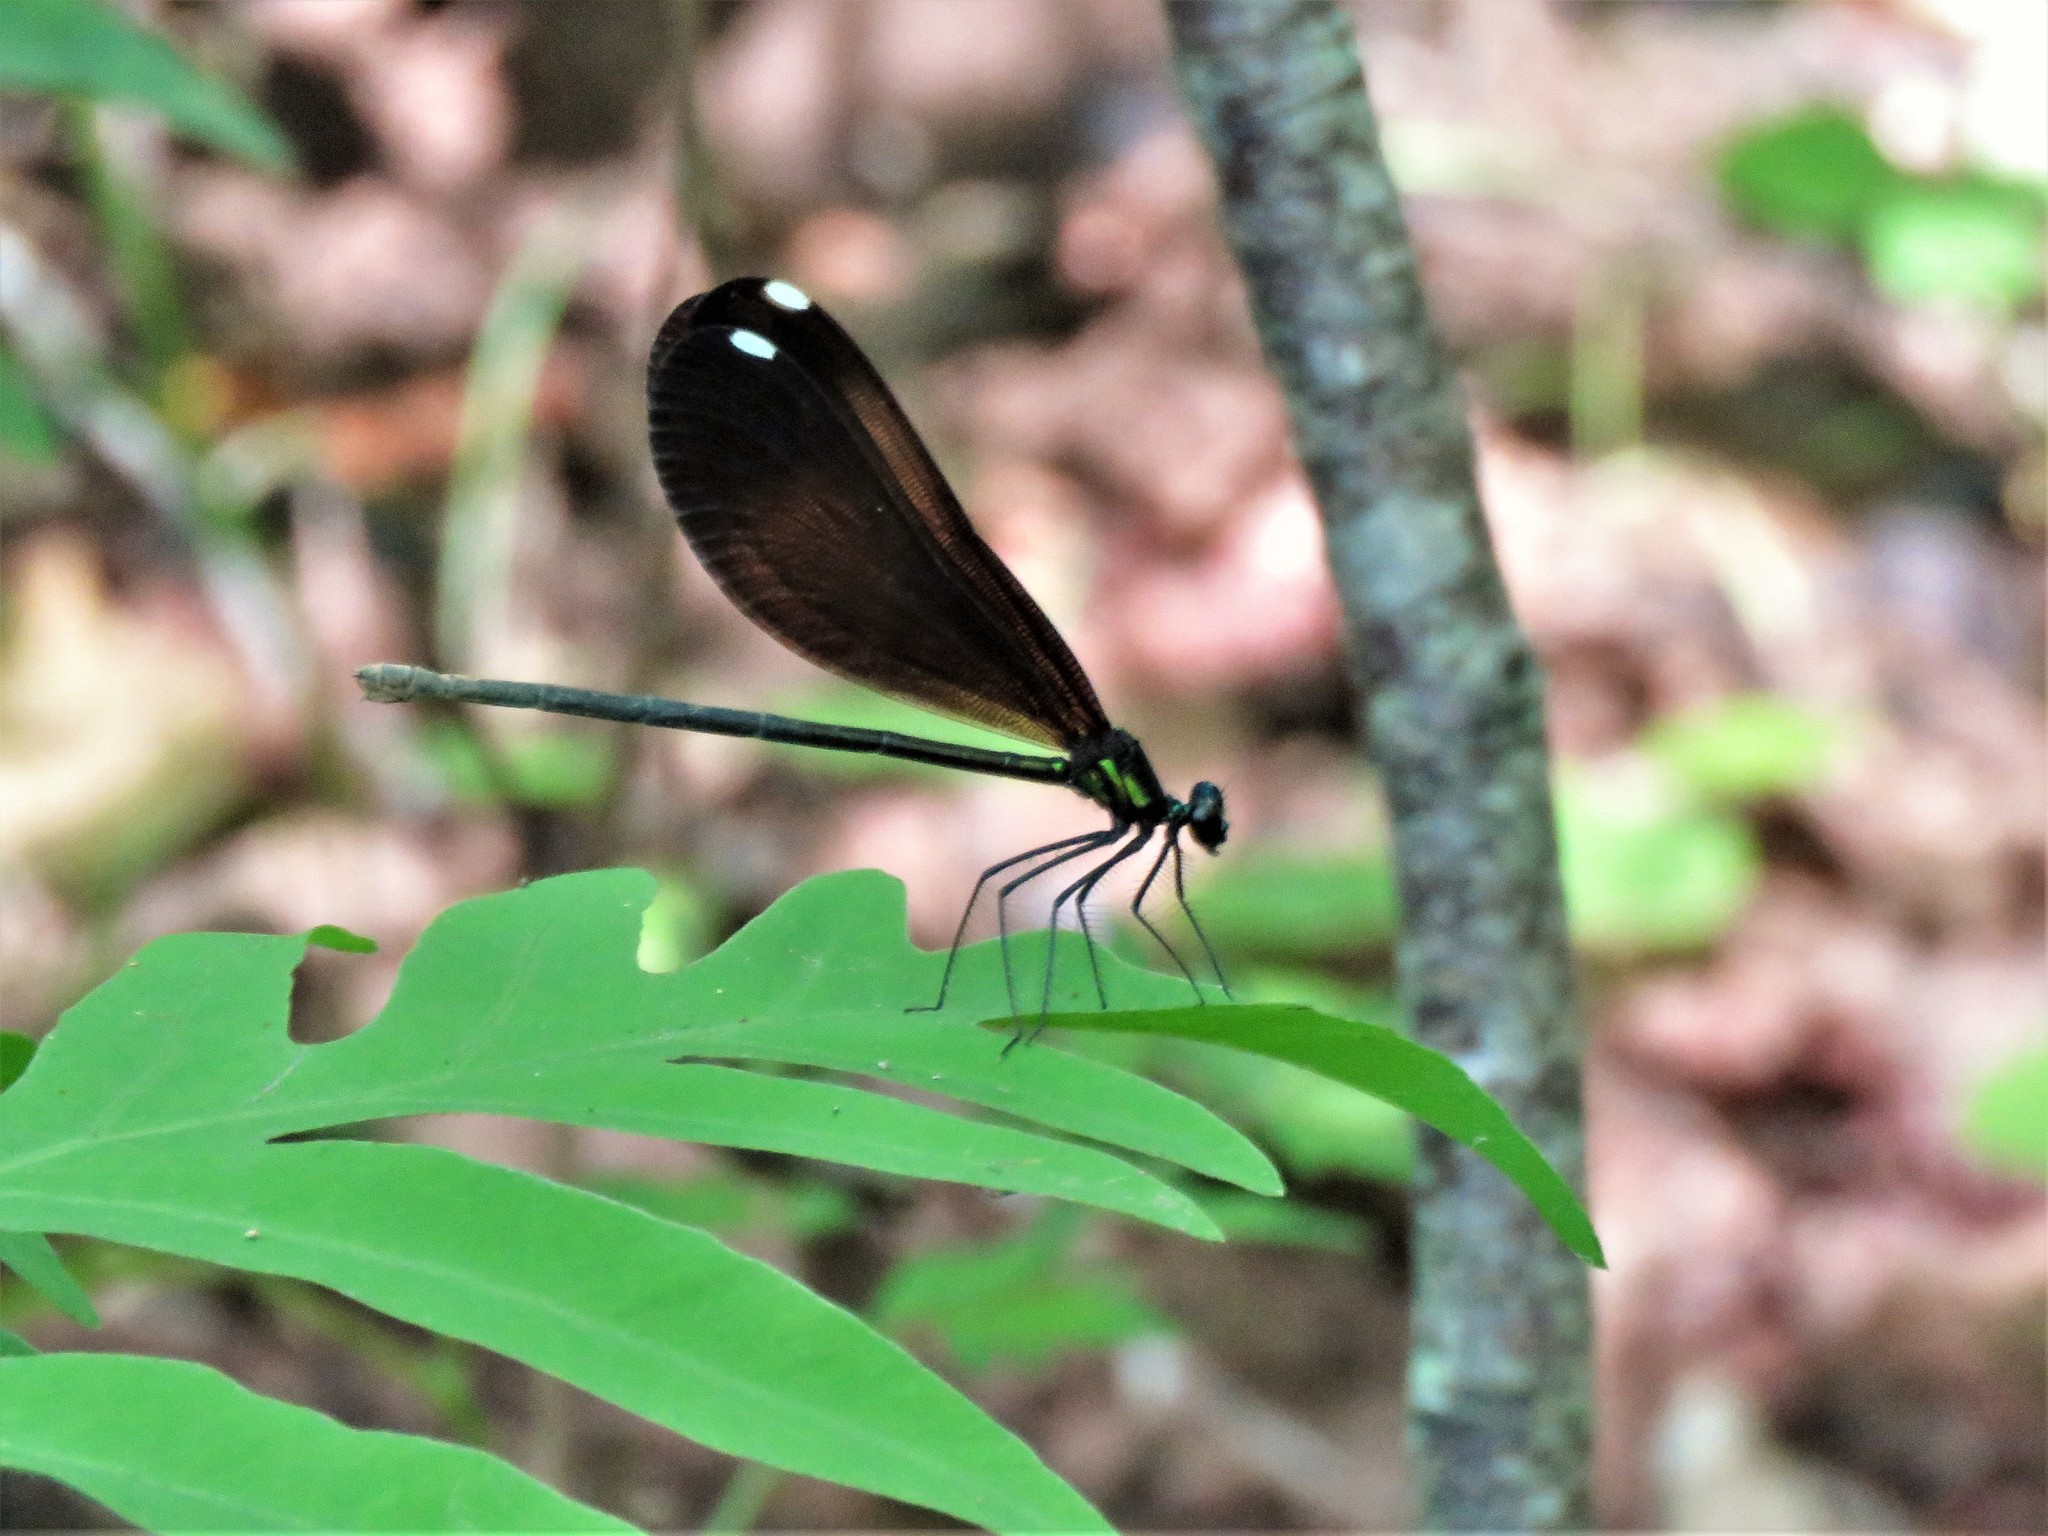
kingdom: Animalia
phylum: Arthropoda
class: Insecta
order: Odonata
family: Calopterygidae
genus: Calopteryx
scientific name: Calopteryx maculata
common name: Ebony jewelwing
